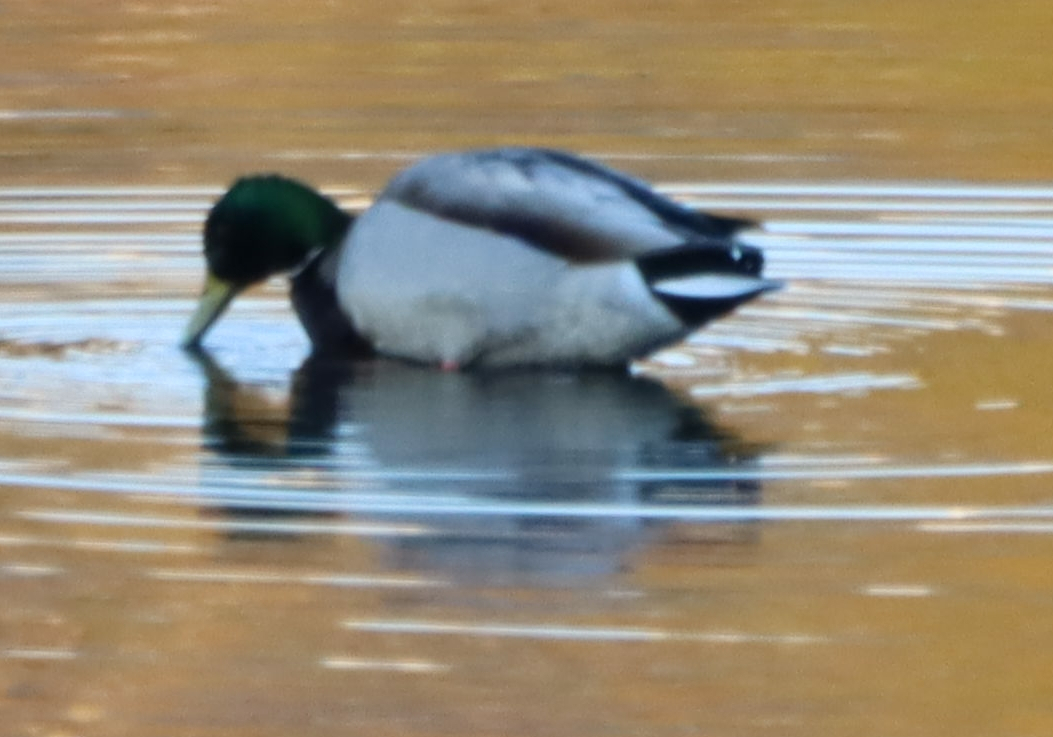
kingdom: Animalia
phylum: Chordata
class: Aves
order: Anseriformes
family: Anatidae
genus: Anas
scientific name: Anas platyrhynchos
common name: Mallard
